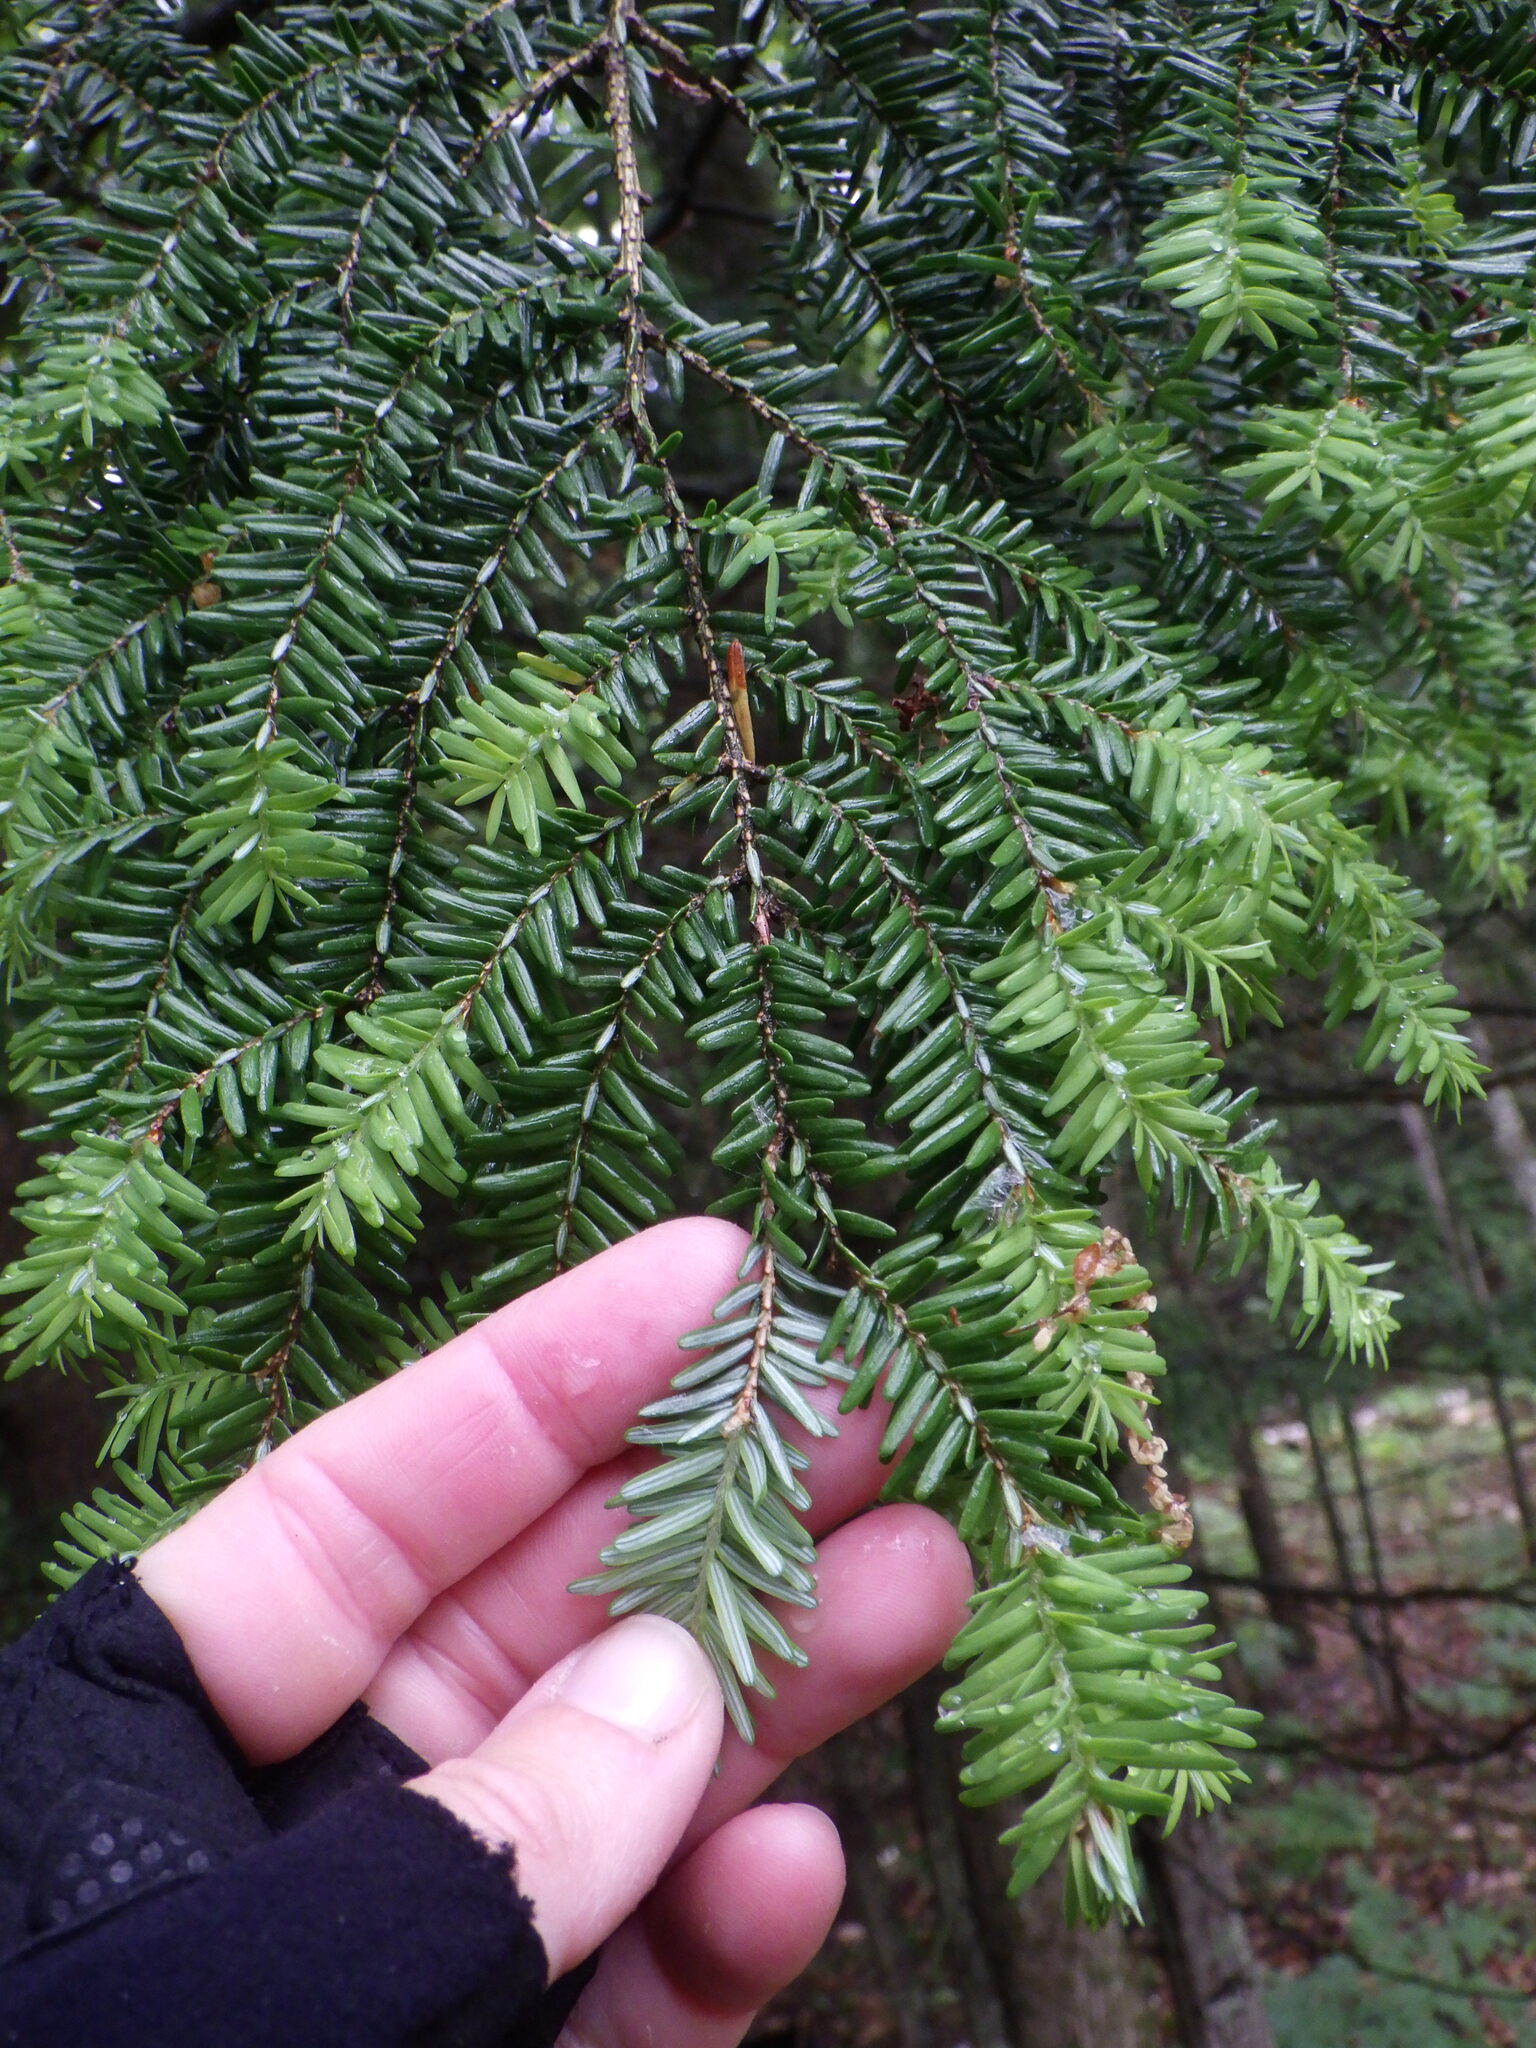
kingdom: Plantae
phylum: Tracheophyta
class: Pinopsida
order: Pinales
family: Pinaceae
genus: Tsuga
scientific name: Tsuga canadensis
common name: Eastern hemlock
